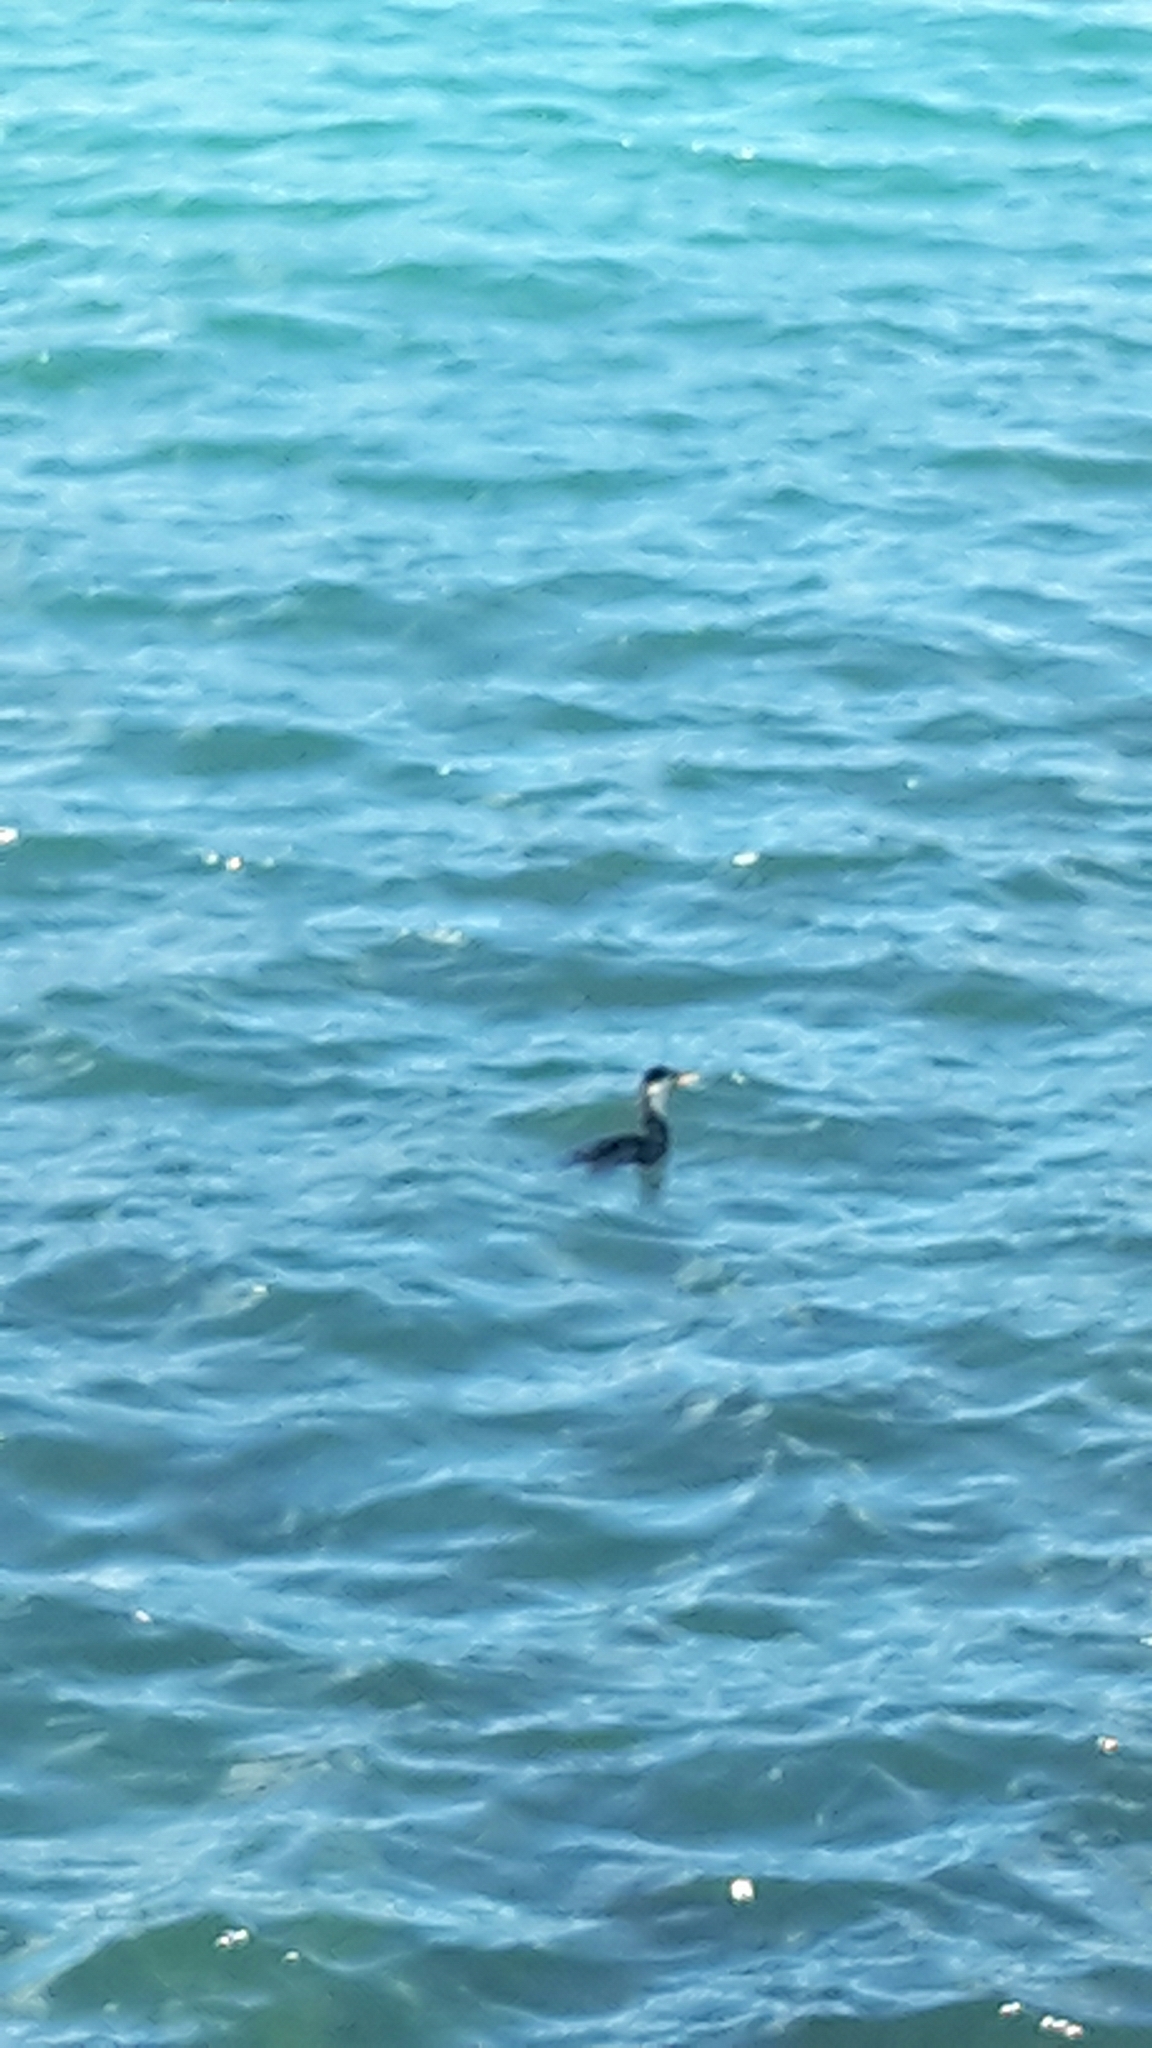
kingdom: Animalia
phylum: Chordata
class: Aves
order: Suliformes
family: Phalacrocoracidae
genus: Microcarbo
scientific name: Microcarbo melanoleucos
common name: Little pied cormorant
